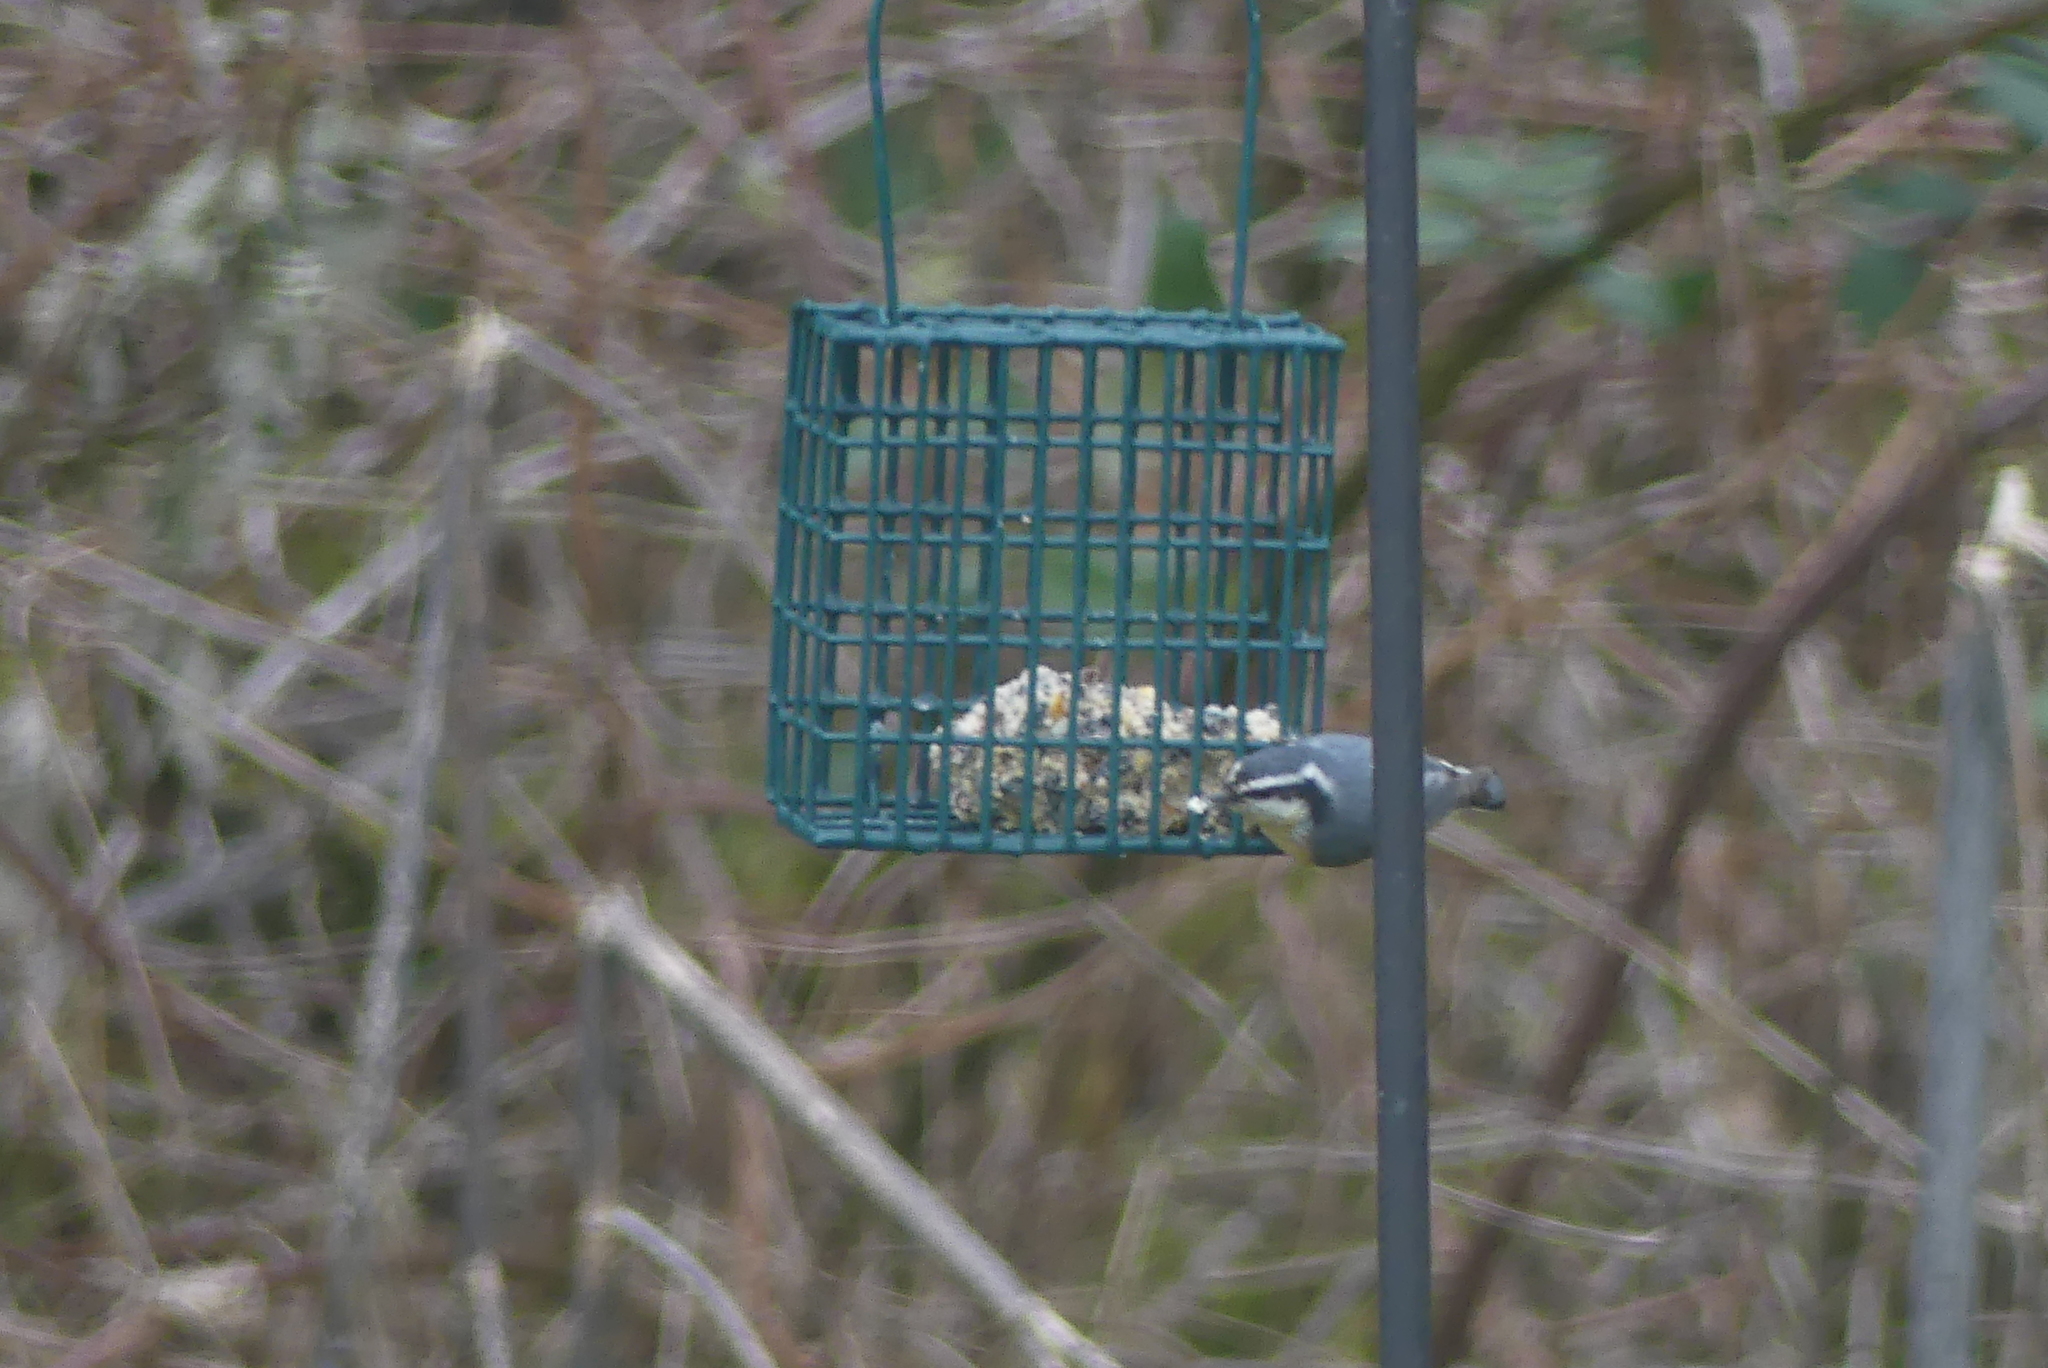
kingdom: Animalia
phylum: Chordata
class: Aves
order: Passeriformes
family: Sittidae
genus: Sitta
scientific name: Sitta canadensis
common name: Red-breasted nuthatch
